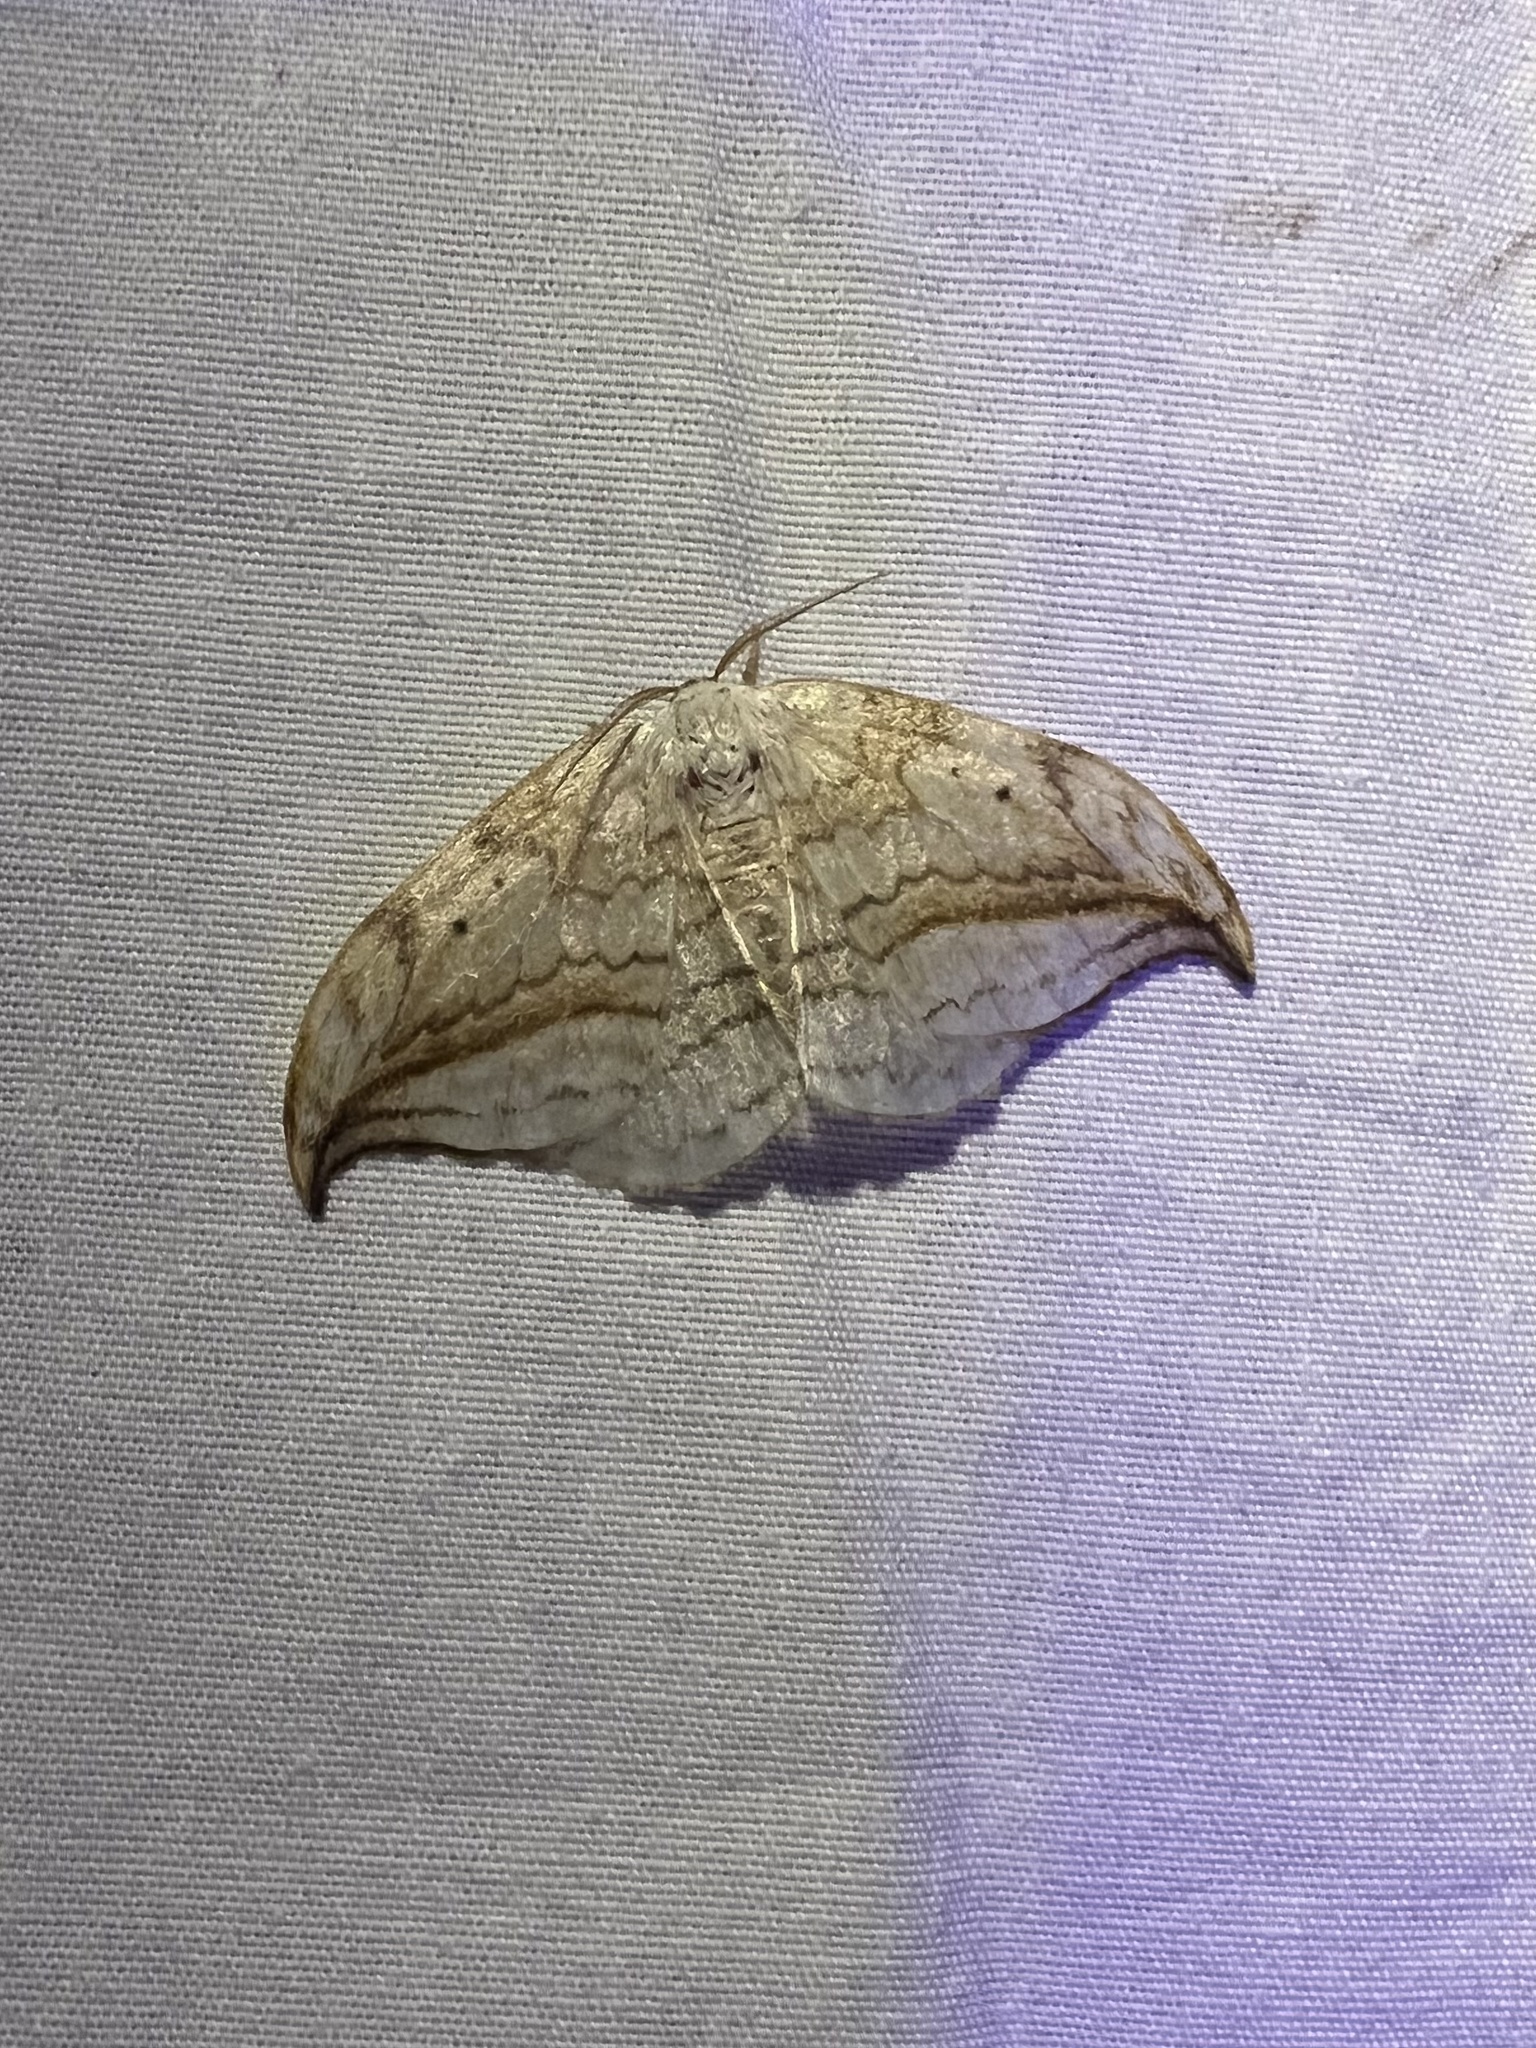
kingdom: Animalia
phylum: Arthropoda
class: Insecta
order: Lepidoptera
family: Drepanidae
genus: Drepana
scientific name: Drepana arcuata
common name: Arched hooktip moth
